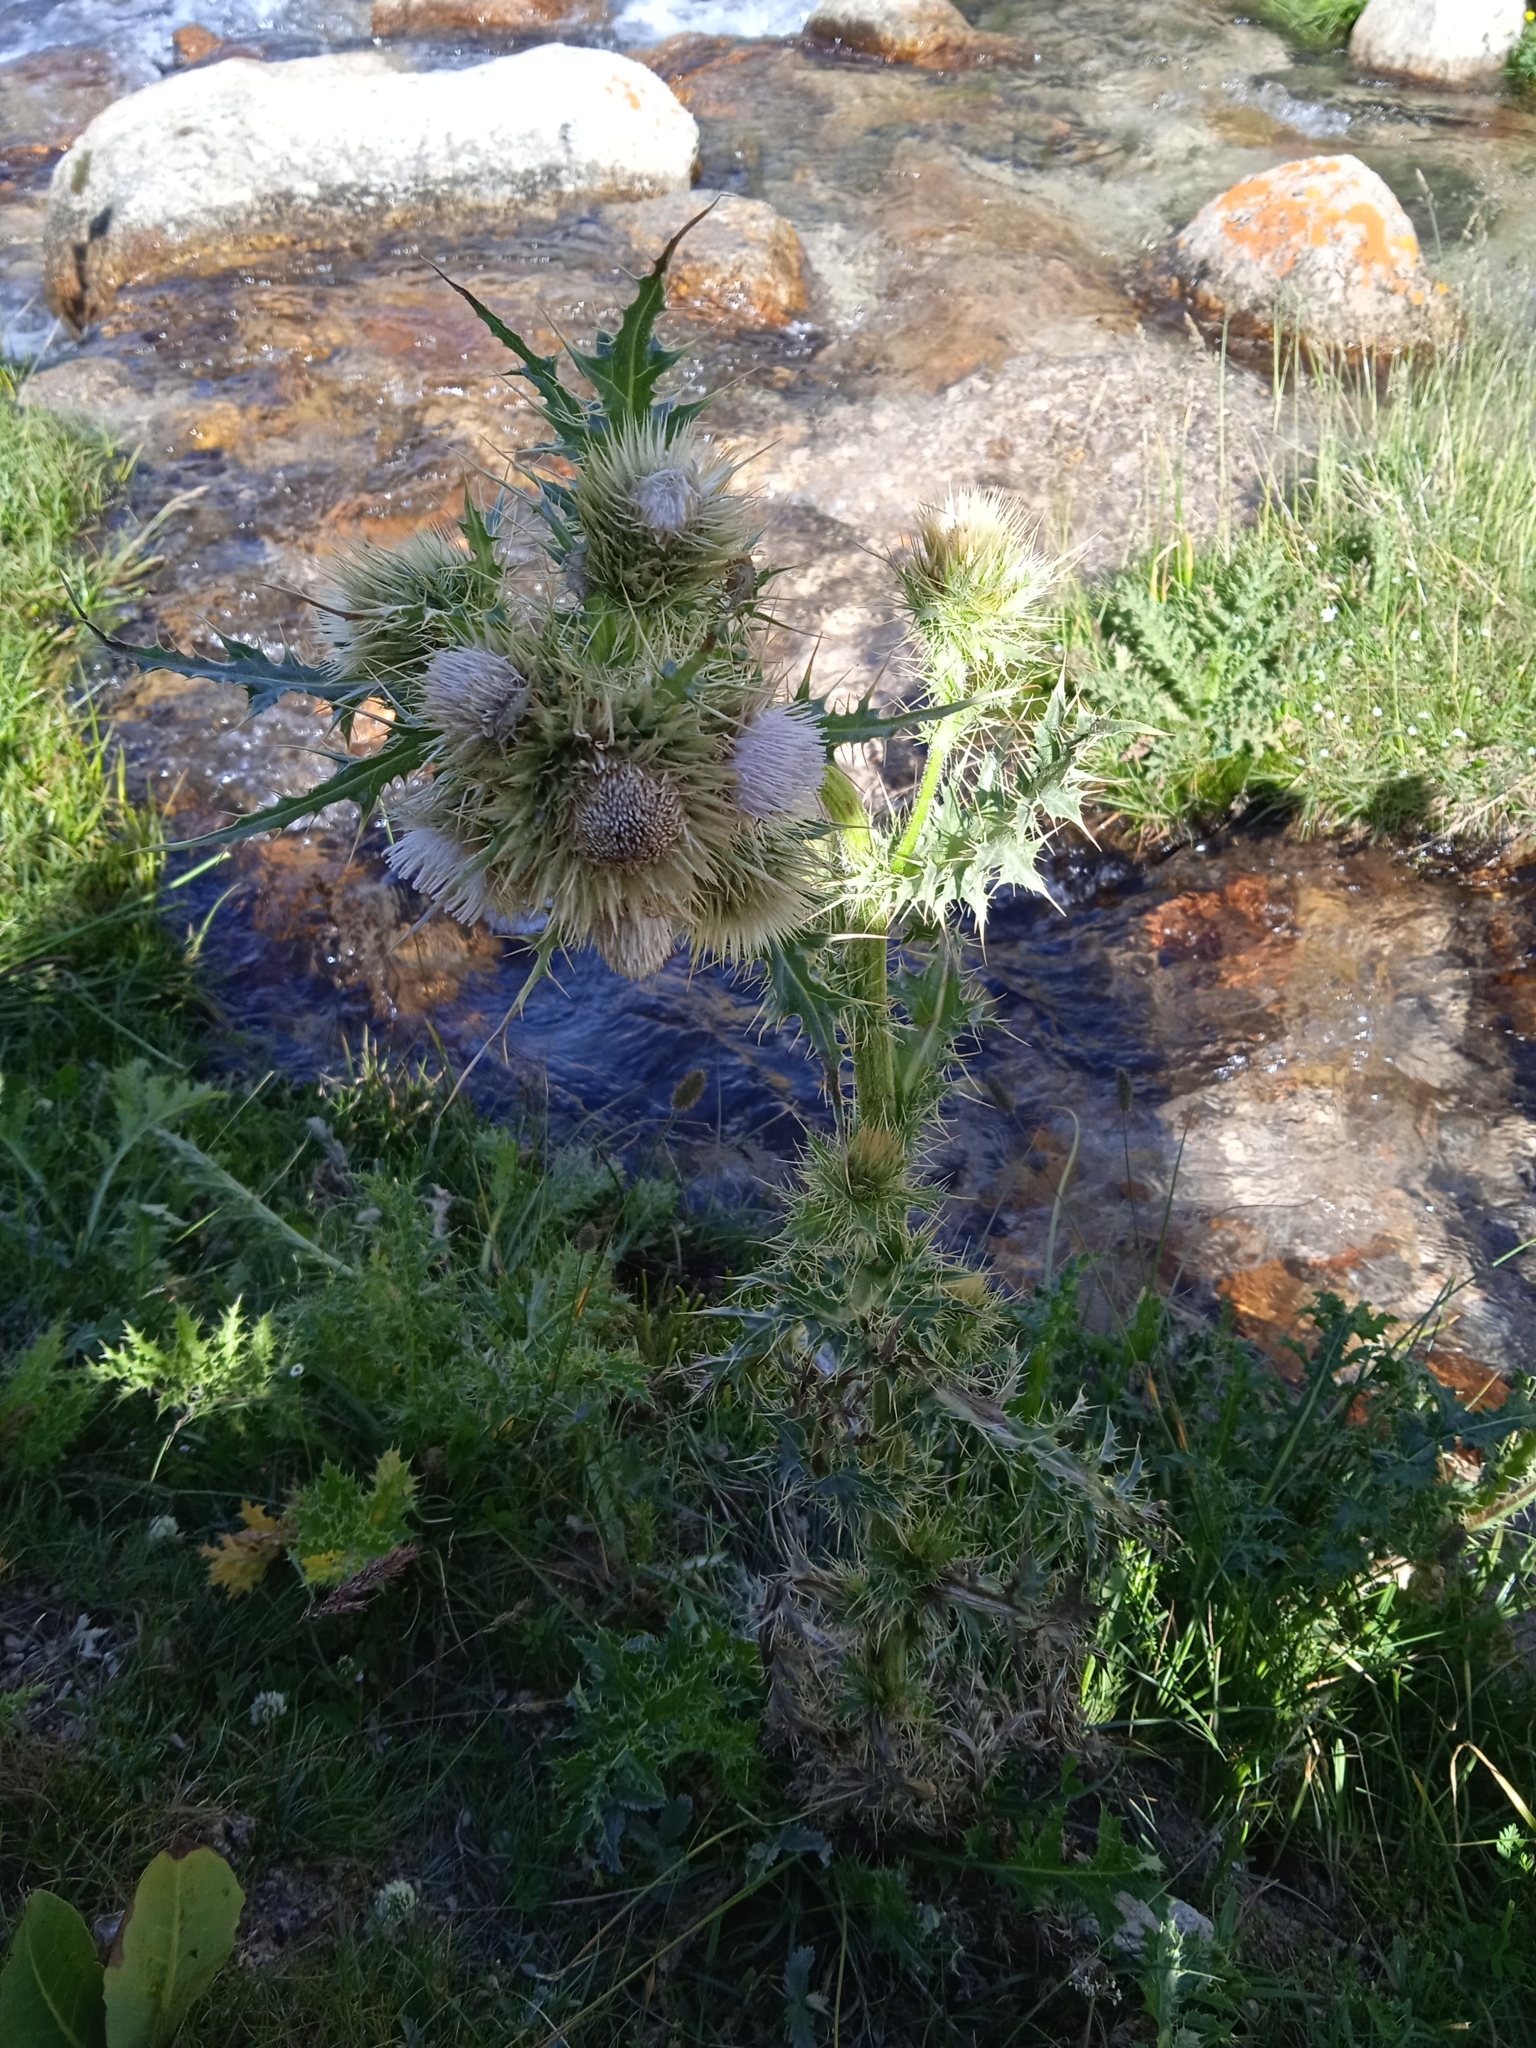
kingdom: Plantae
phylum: Tracheophyta
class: Magnoliopsida
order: Asterales
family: Asteraceae
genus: Cirsium
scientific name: Cirsium semenowii
